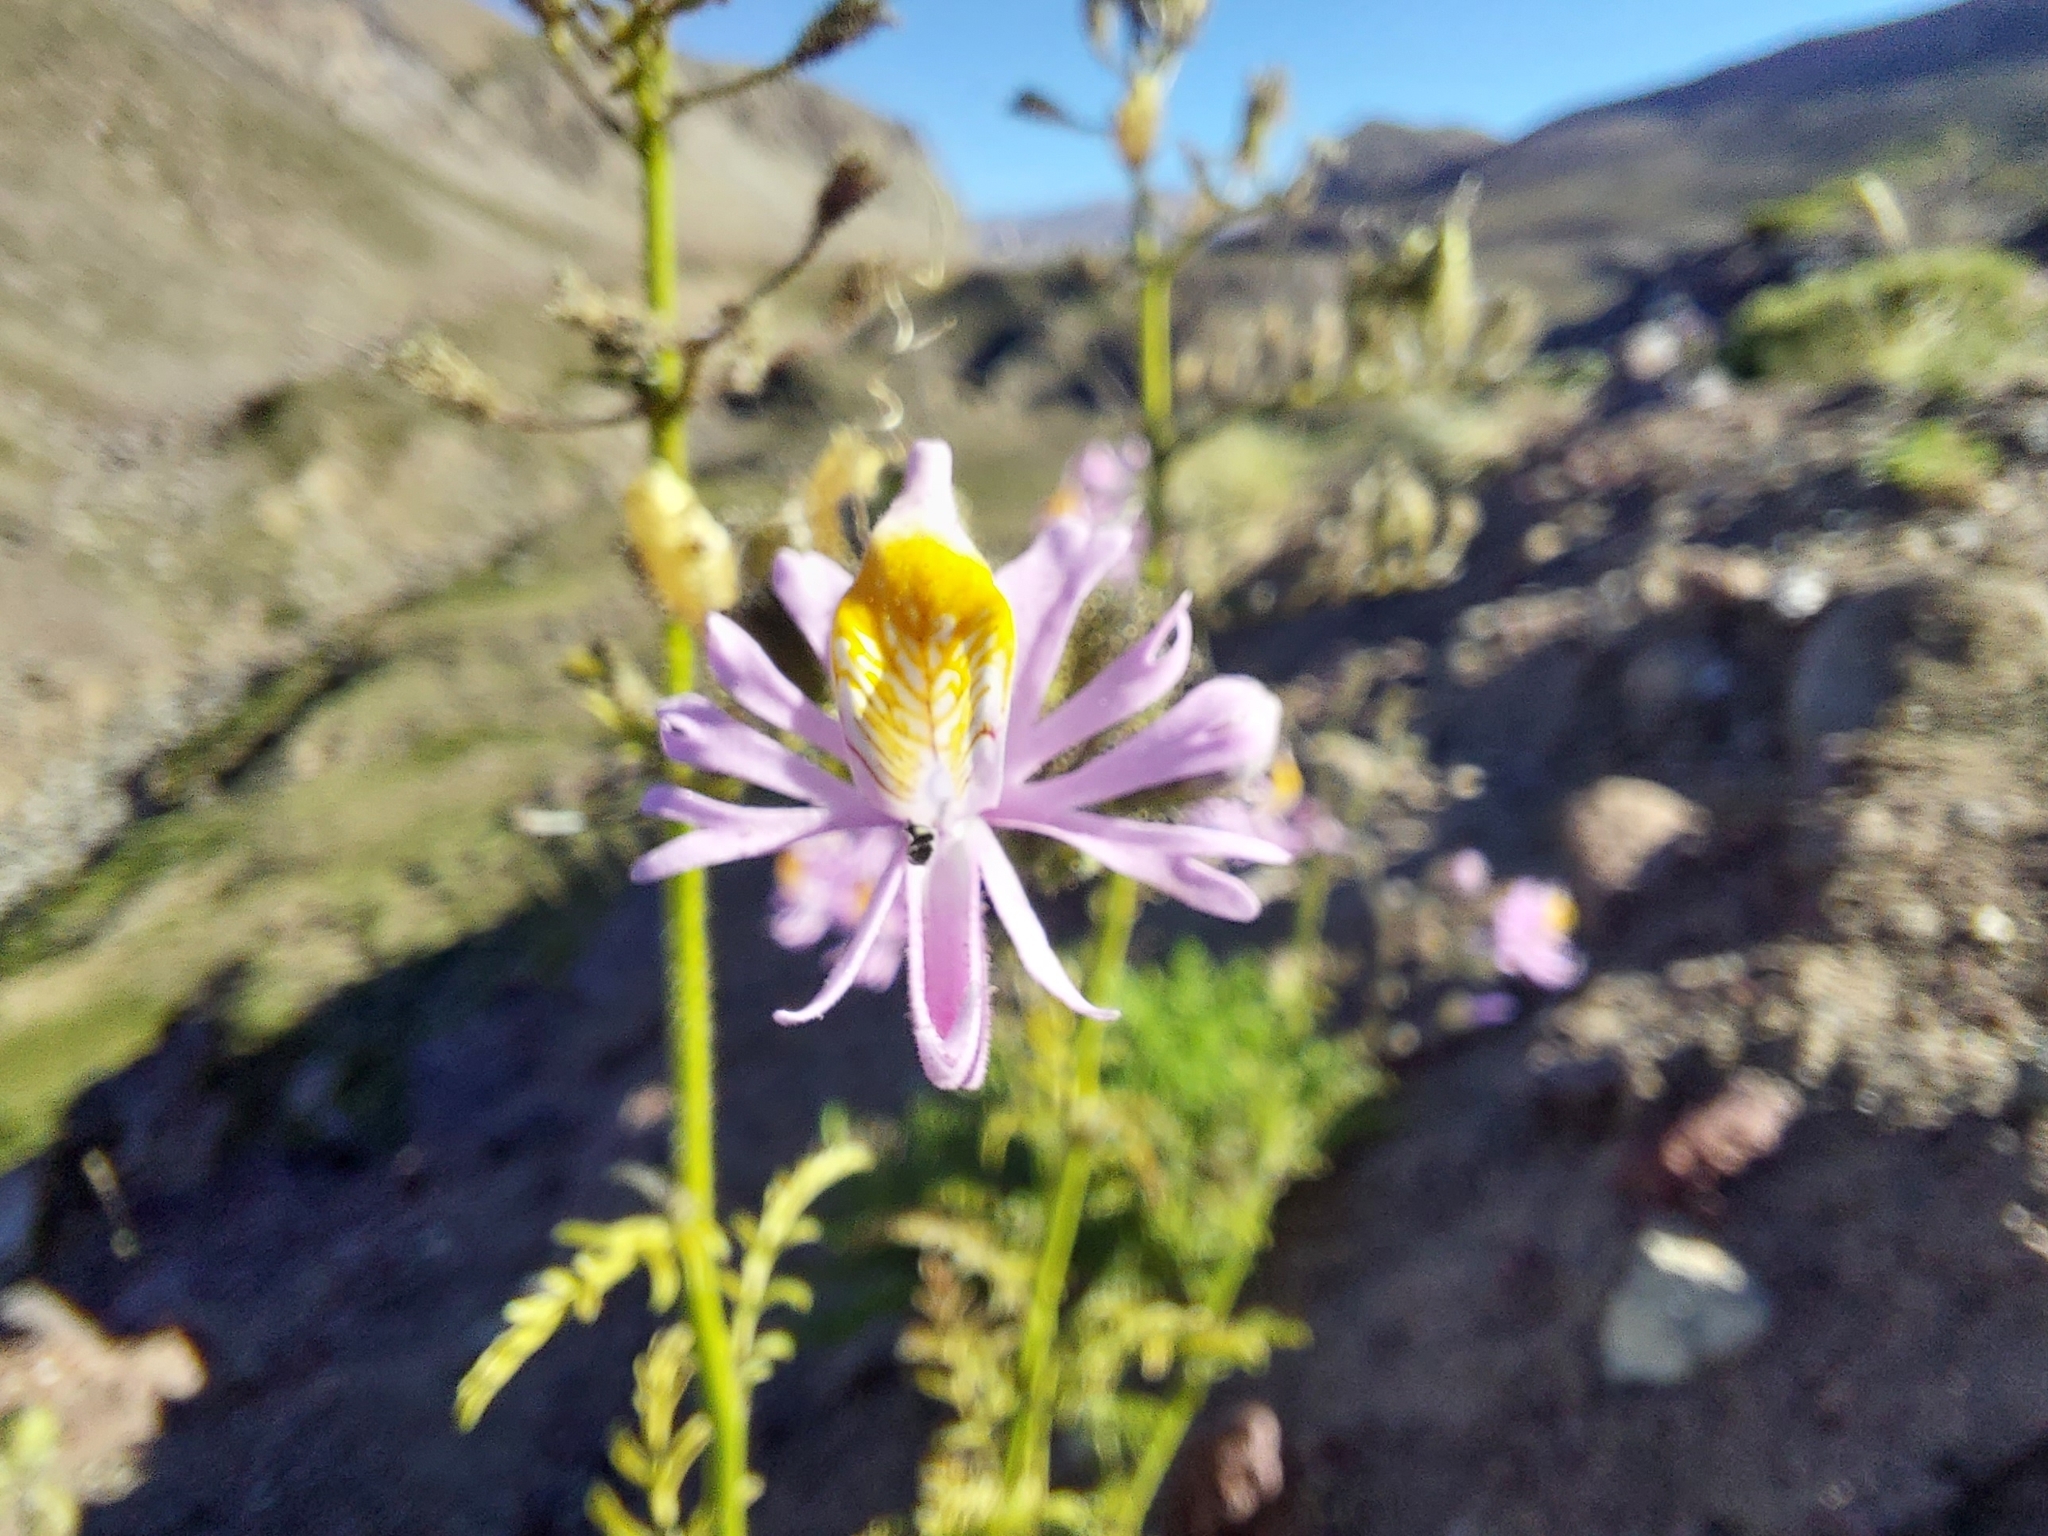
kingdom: Plantae
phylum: Tracheophyta
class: Magnoliopsida
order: Solanales
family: Solanaceae
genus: Schizanthus
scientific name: Schizanthus hookeri
